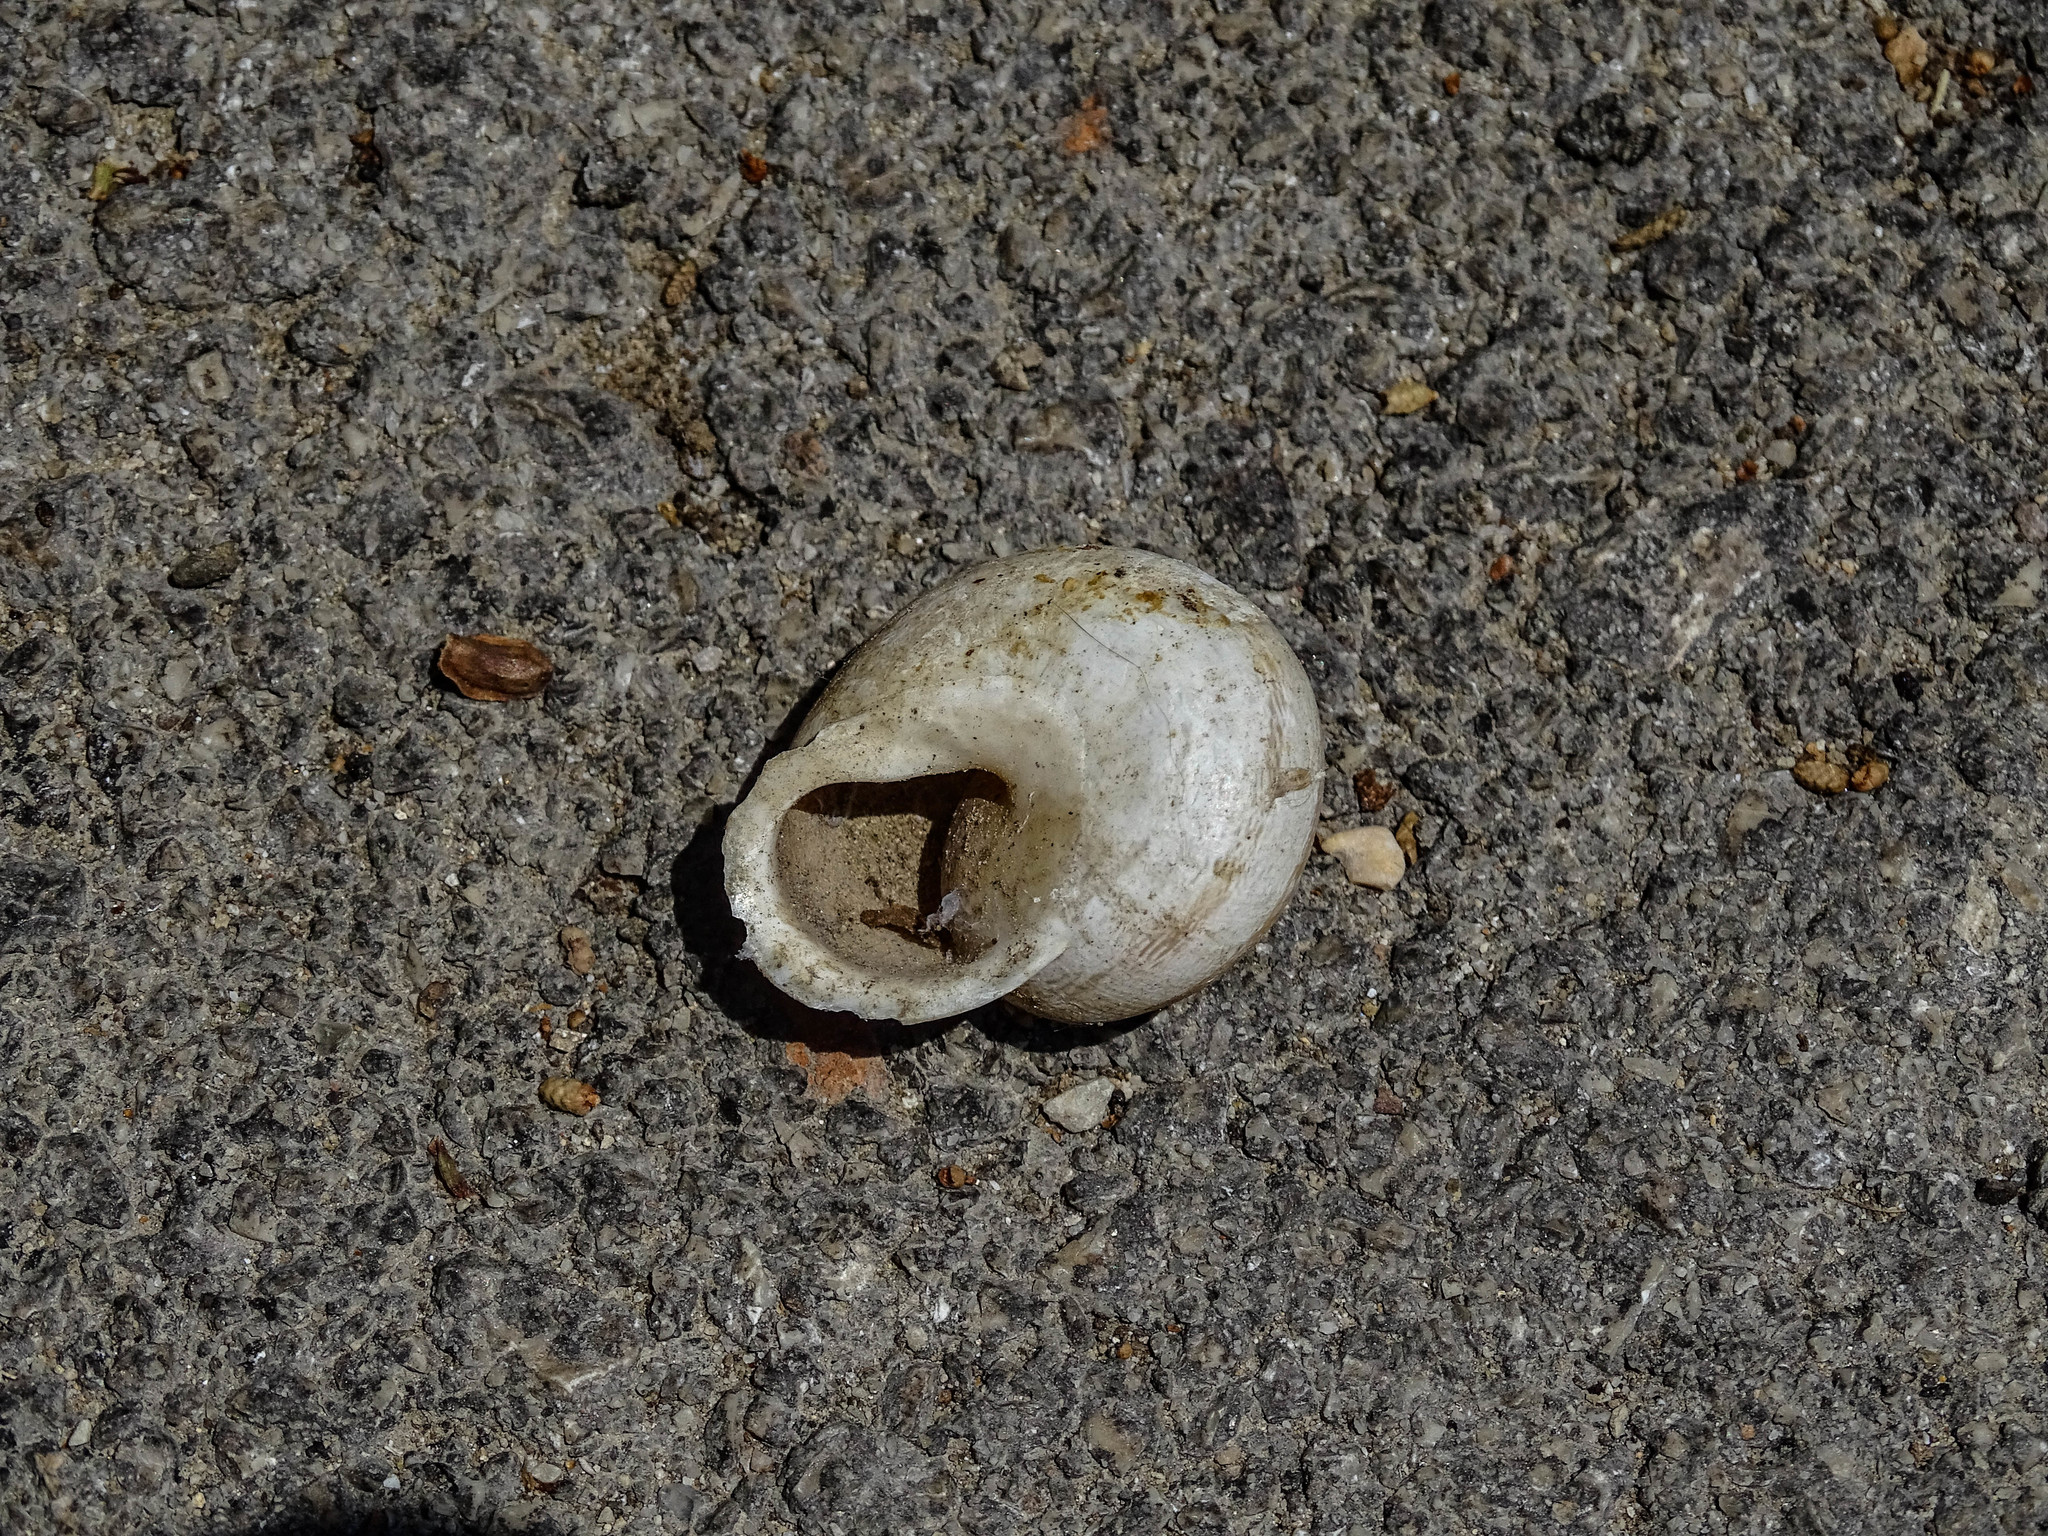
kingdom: Animalia
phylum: Mollusca
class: Gastropoda
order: Stylommatophora
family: Helicidae
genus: Eobania
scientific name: Eobania vermiculata
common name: Chocolateband snail
